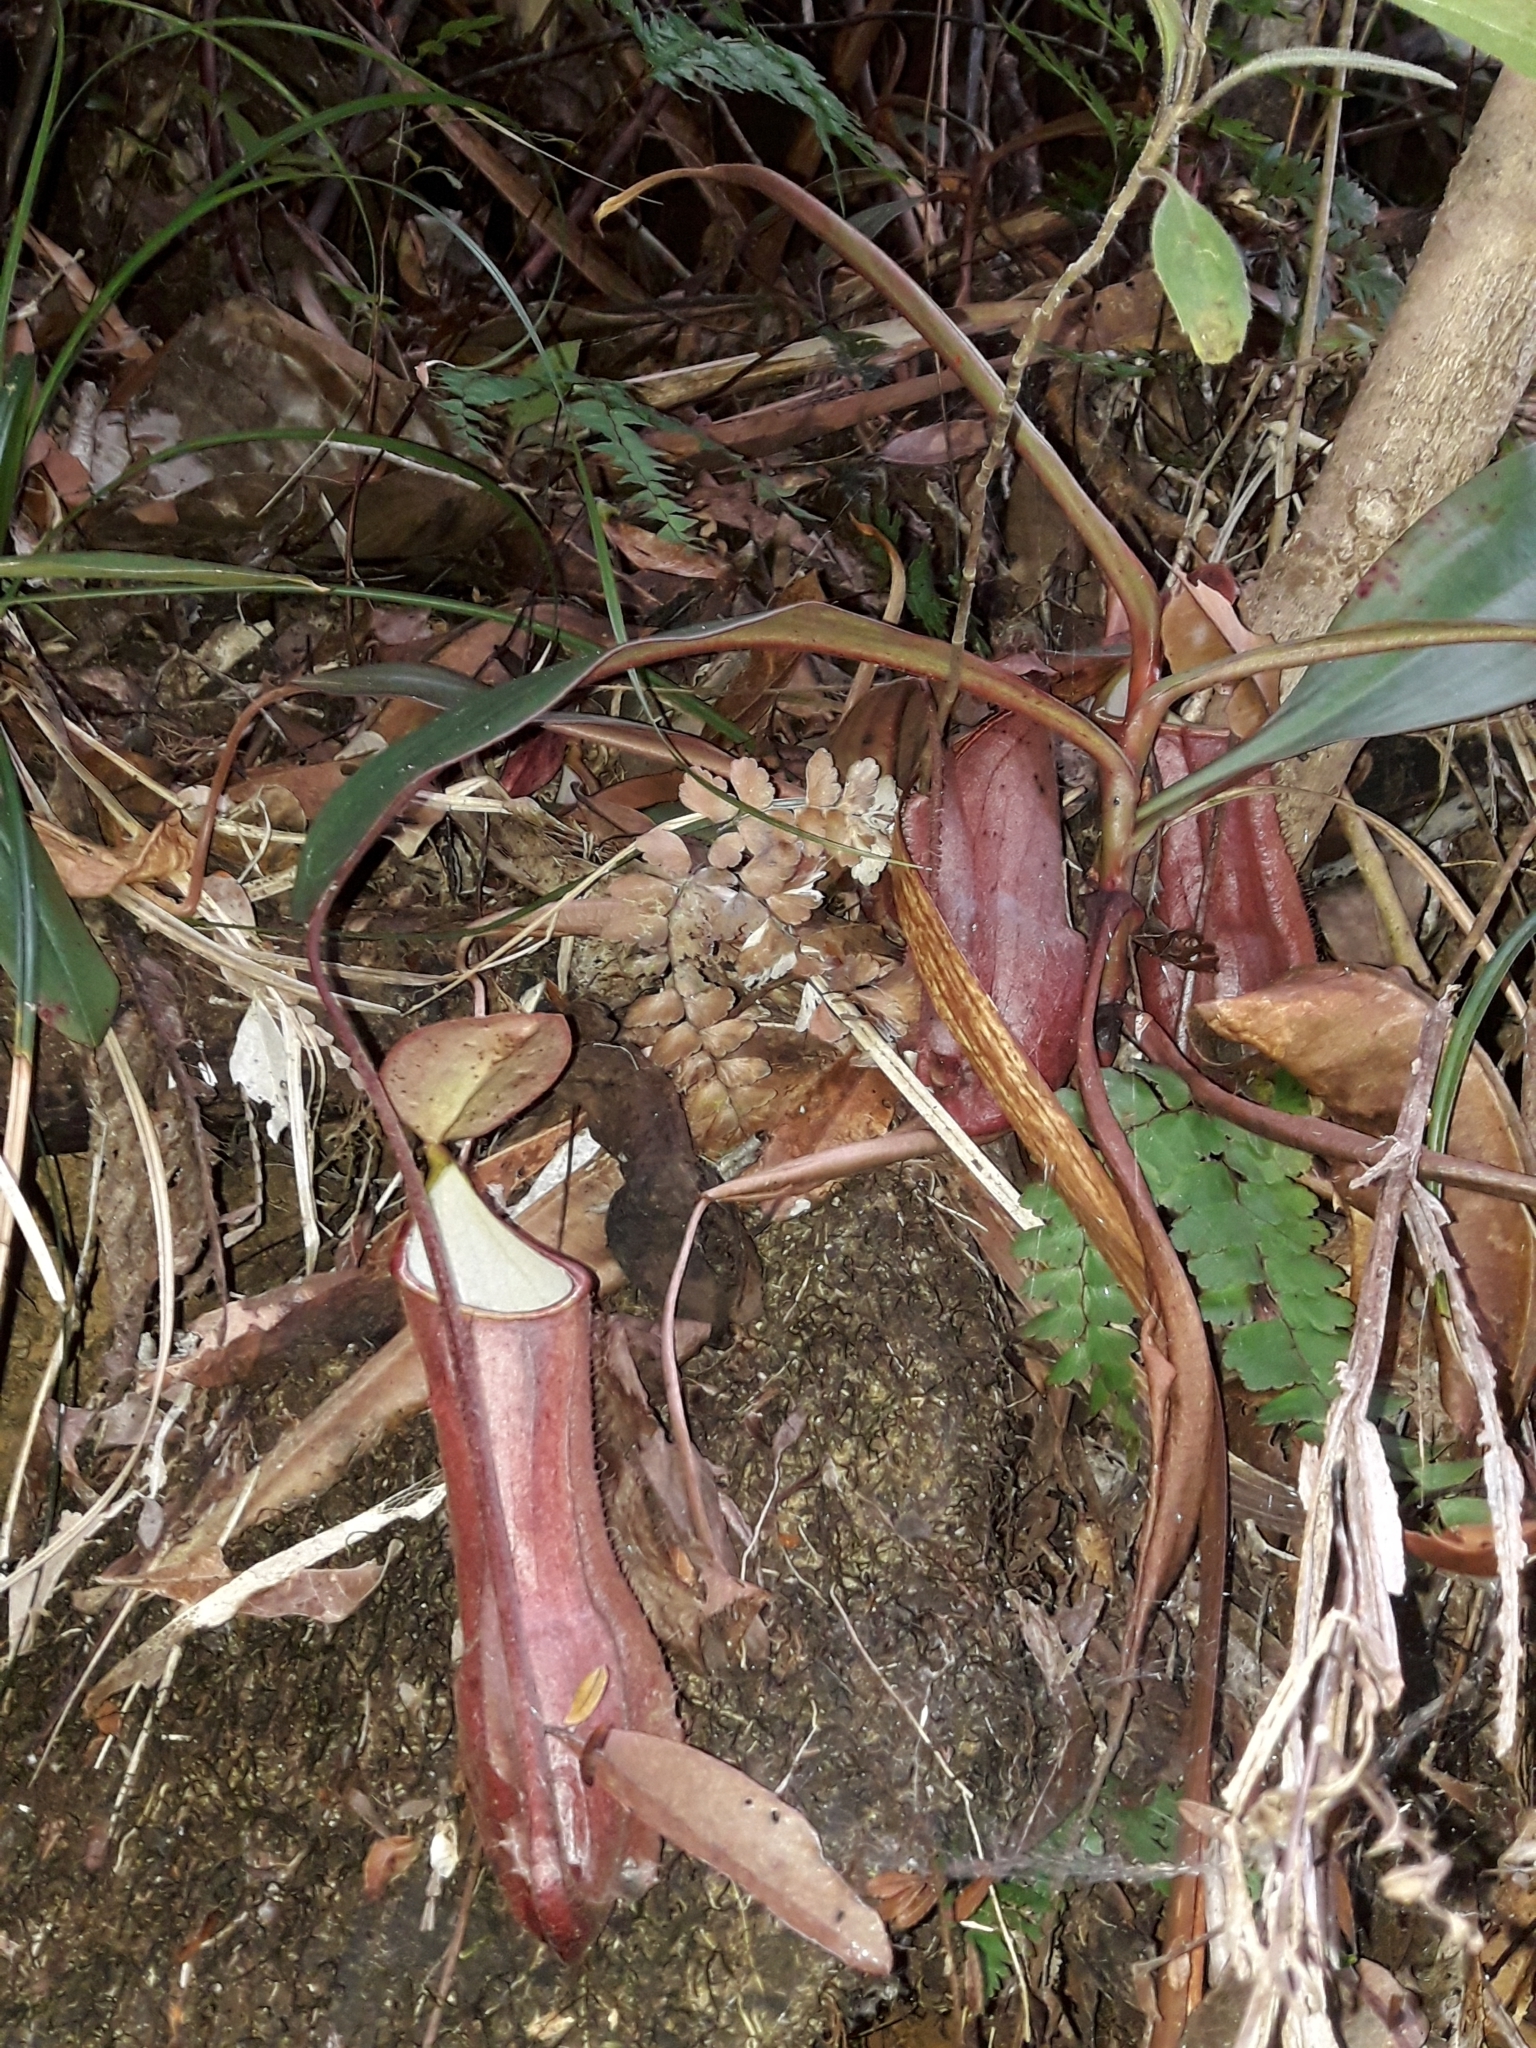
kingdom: Plantae
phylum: Tracheophyta
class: Magnoliopsida
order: Caryophyllales
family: Nepenthaceae
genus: Nepenthes
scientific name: Nepenthes vieillardii
